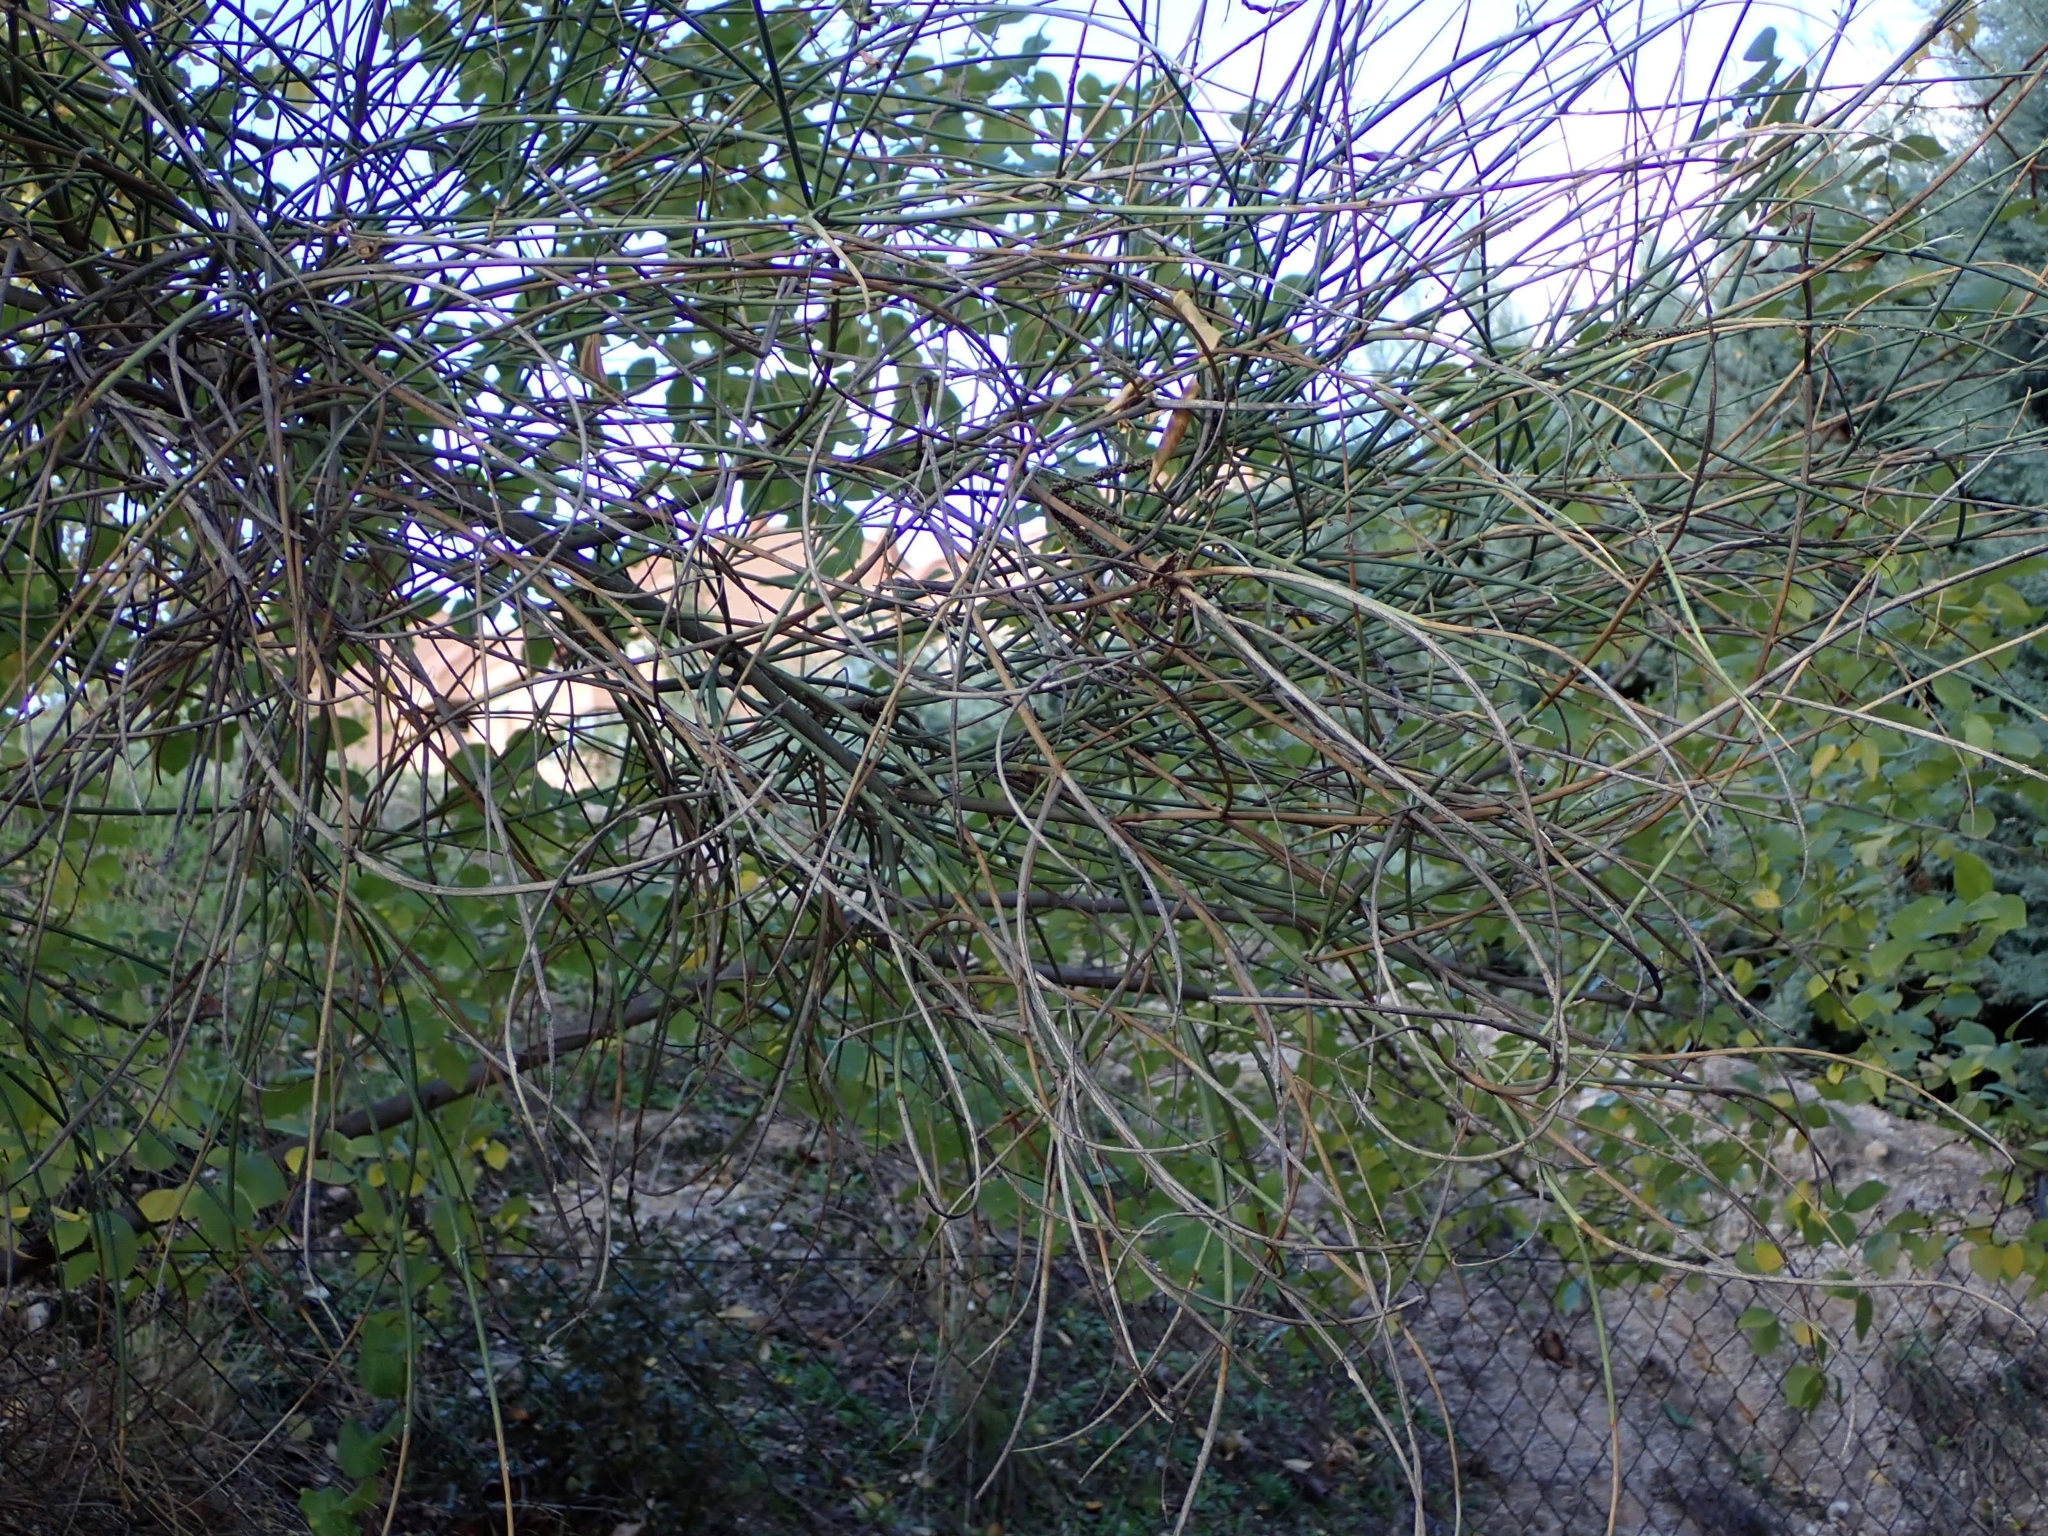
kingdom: Plantae
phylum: Tracheophyta
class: Magnoliopsida
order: Fabales
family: Fabaceae
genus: Spartium
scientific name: Spartium junceum
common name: Spanish broom
